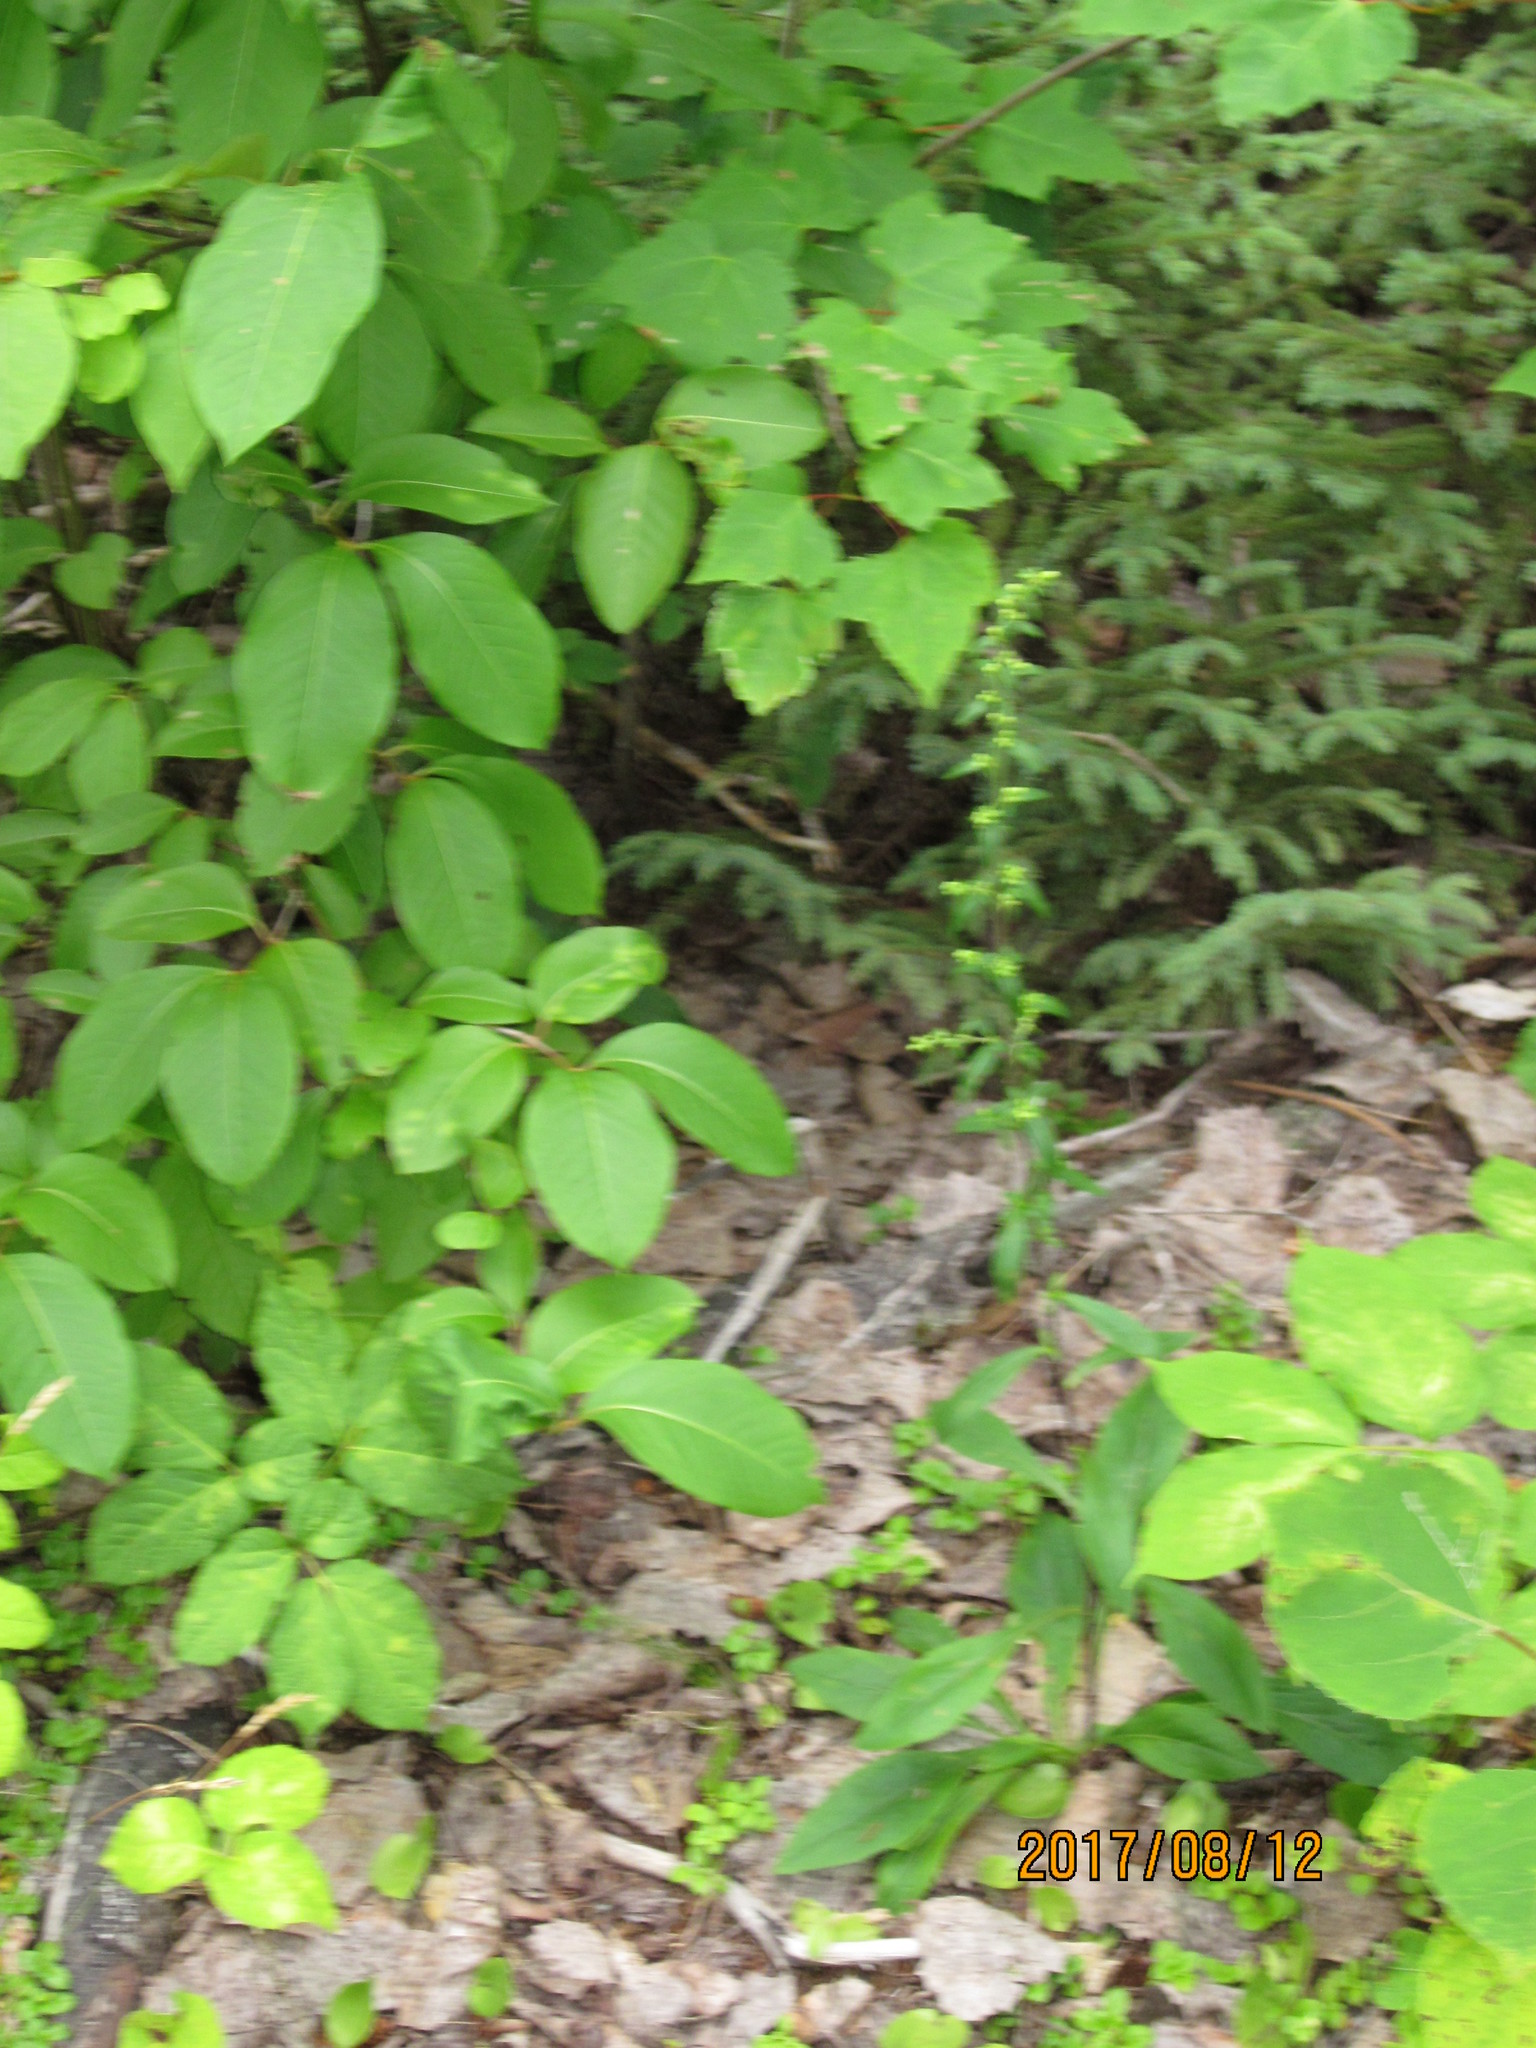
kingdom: Plantae
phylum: Tracheophyta
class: Magnoliopsida
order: Asterales
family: Asteraceae
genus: Solidago
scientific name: Solidago bicolor
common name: Silverrod
